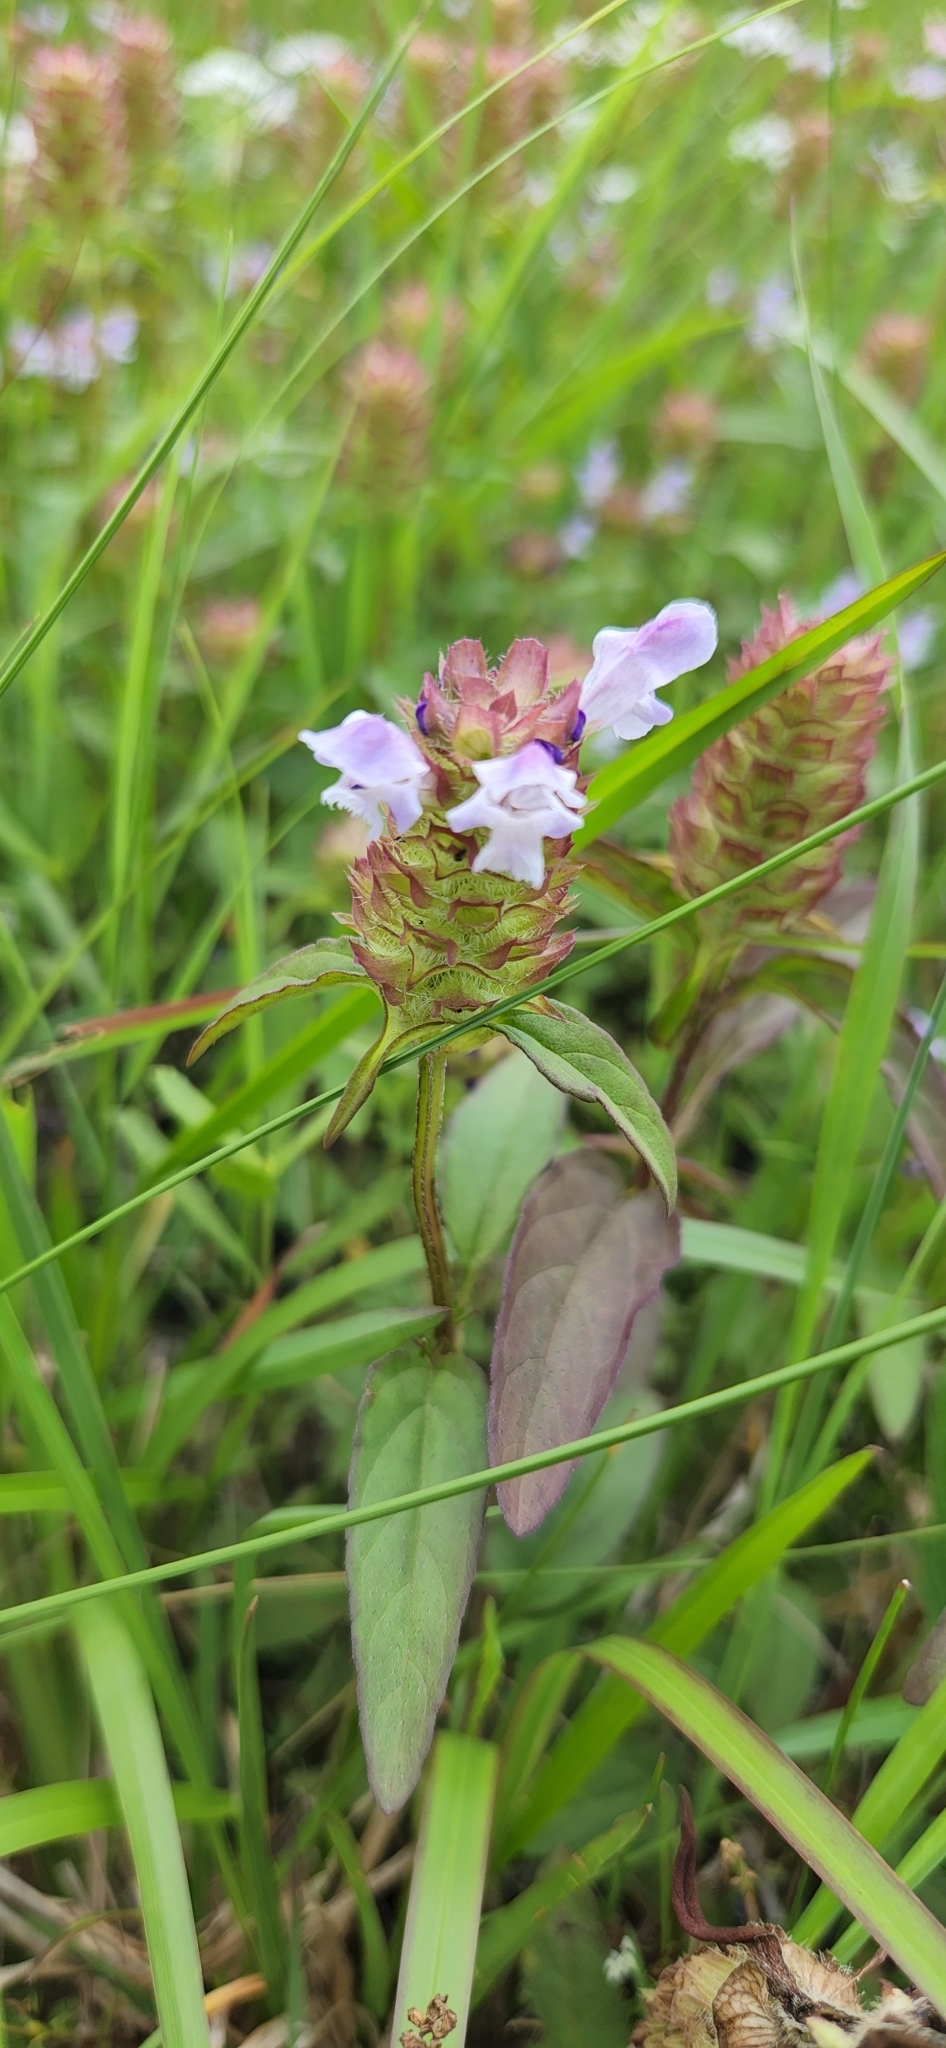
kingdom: Plantae
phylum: Tracheophyta
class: Magnoliopsida
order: Lamiales
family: Lamiaceae
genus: Prunella
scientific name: Prunella vulgaris
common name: Heal-all
